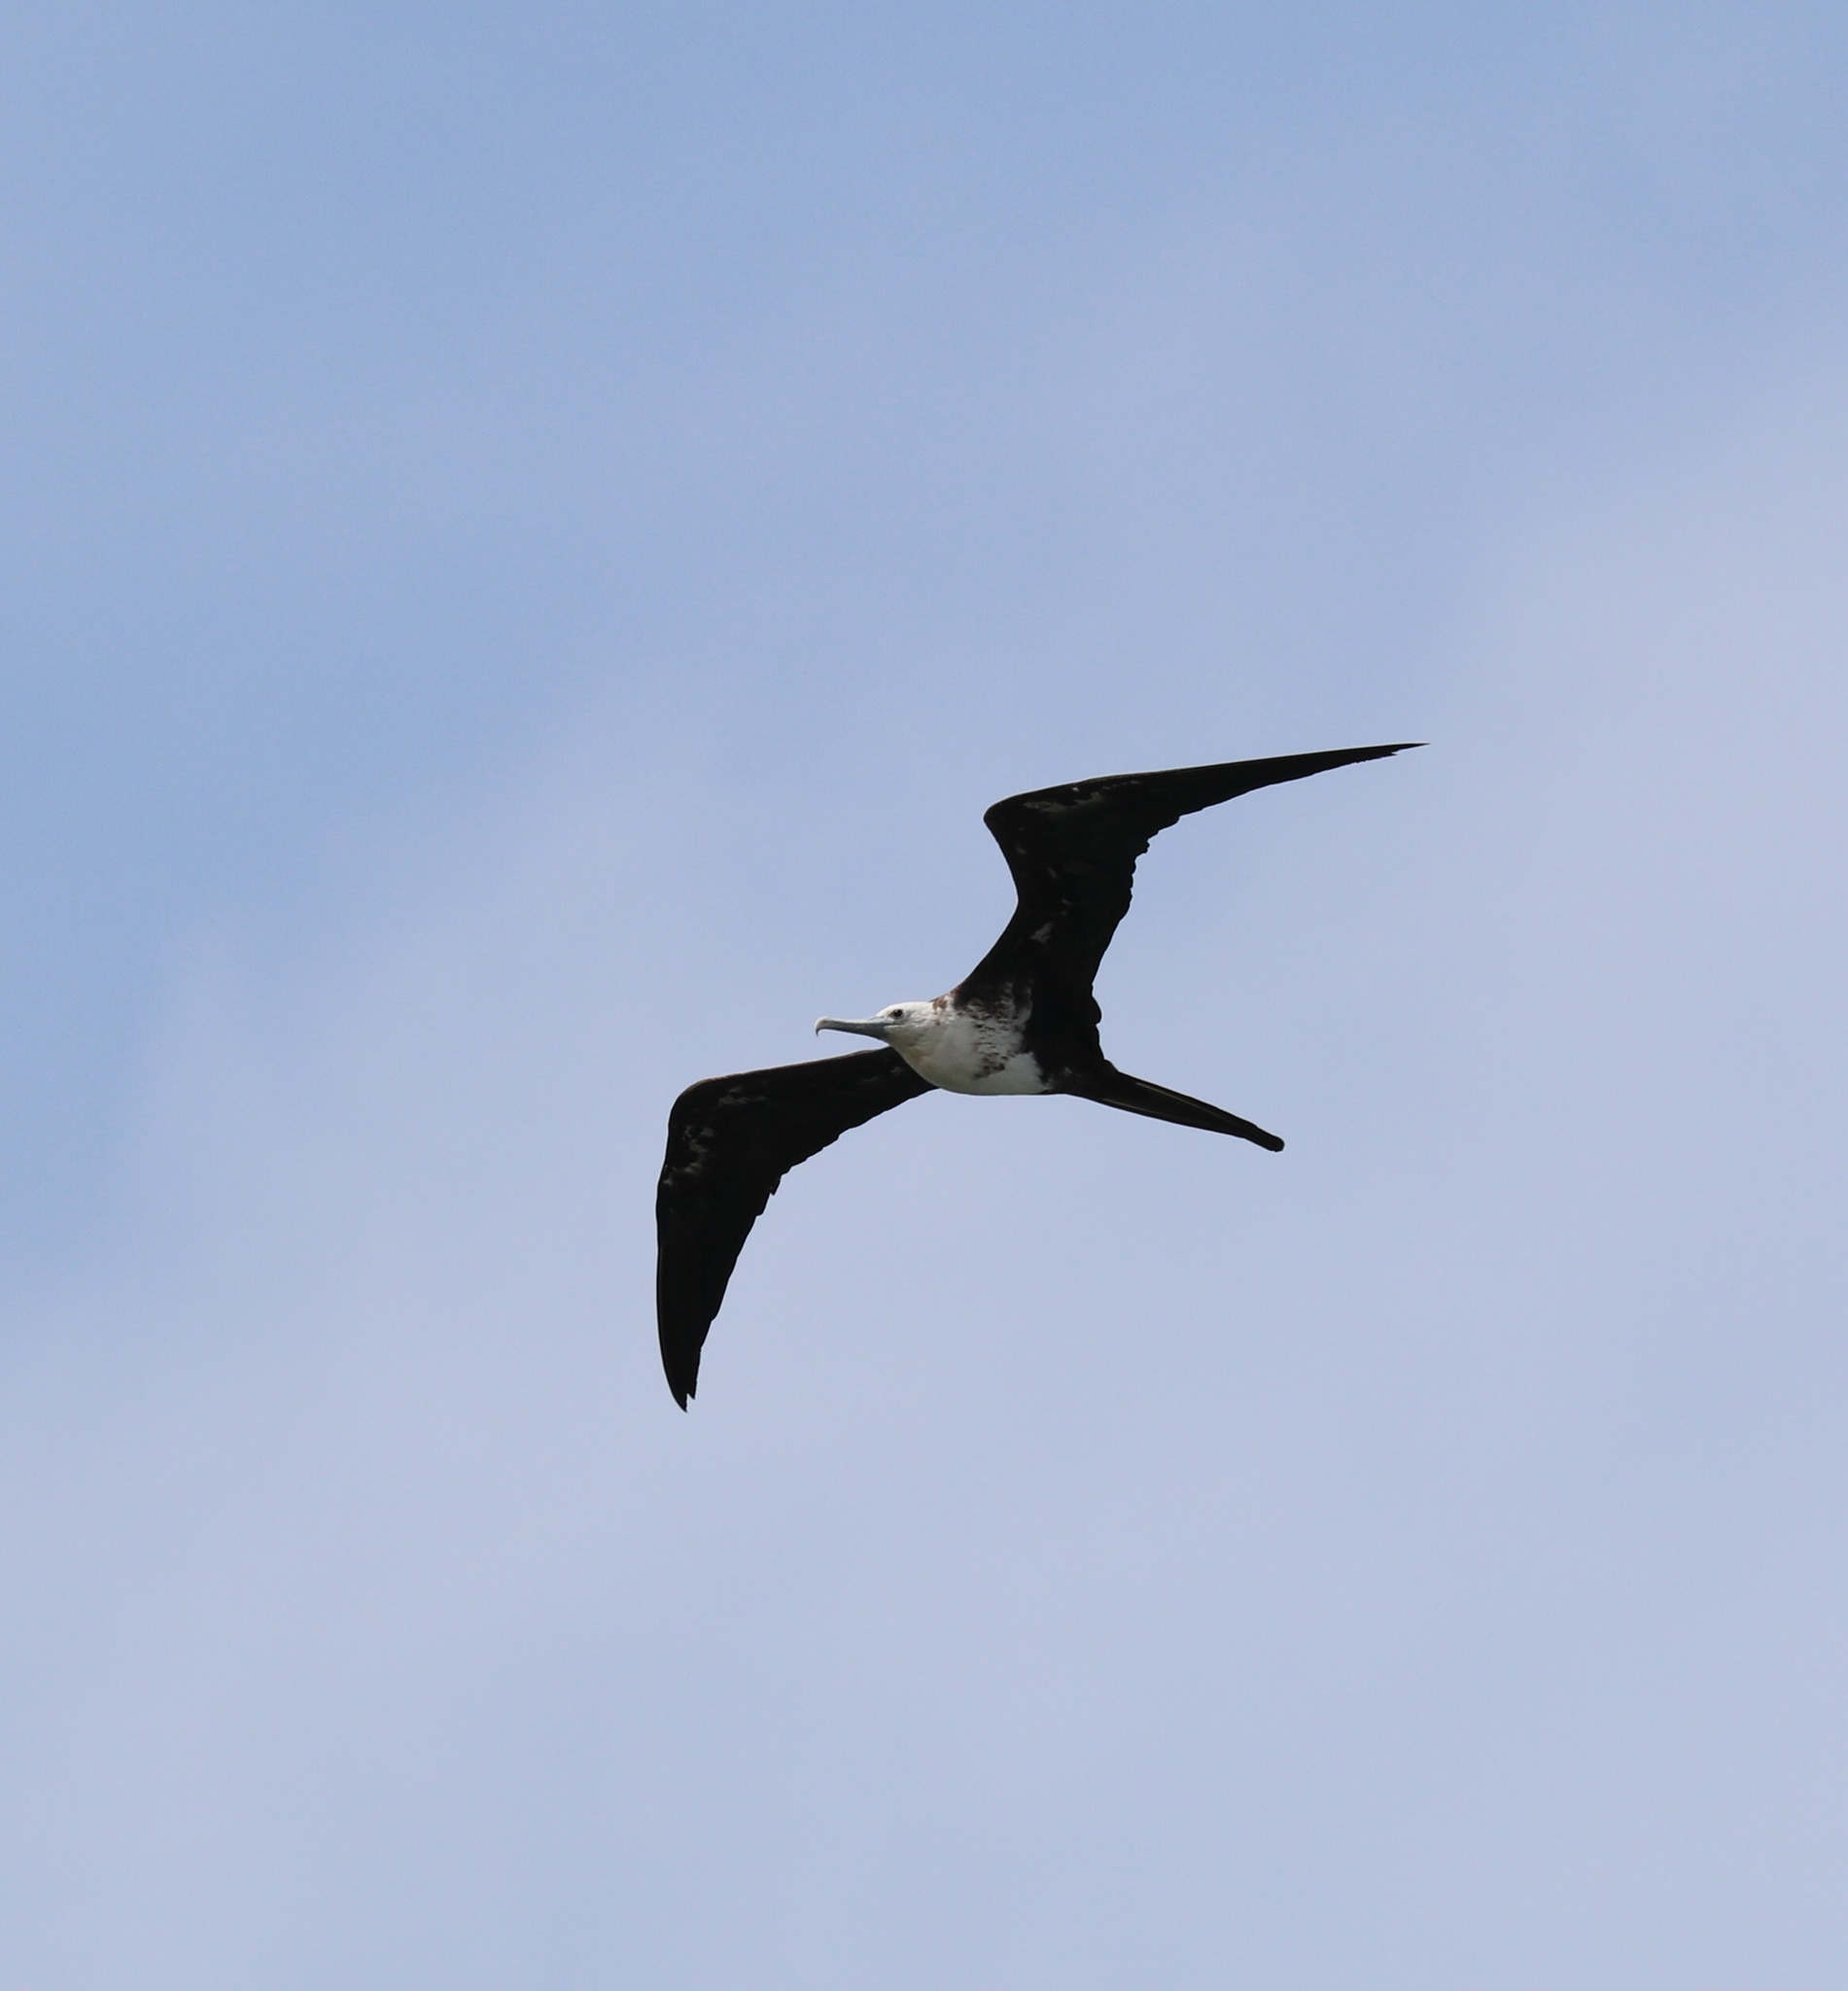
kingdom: Animalia
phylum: Chordata
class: Aves
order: Suliformes
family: Fregatidae
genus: Fregata
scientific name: Fregata magnificens
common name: Magnificent frigatebird
